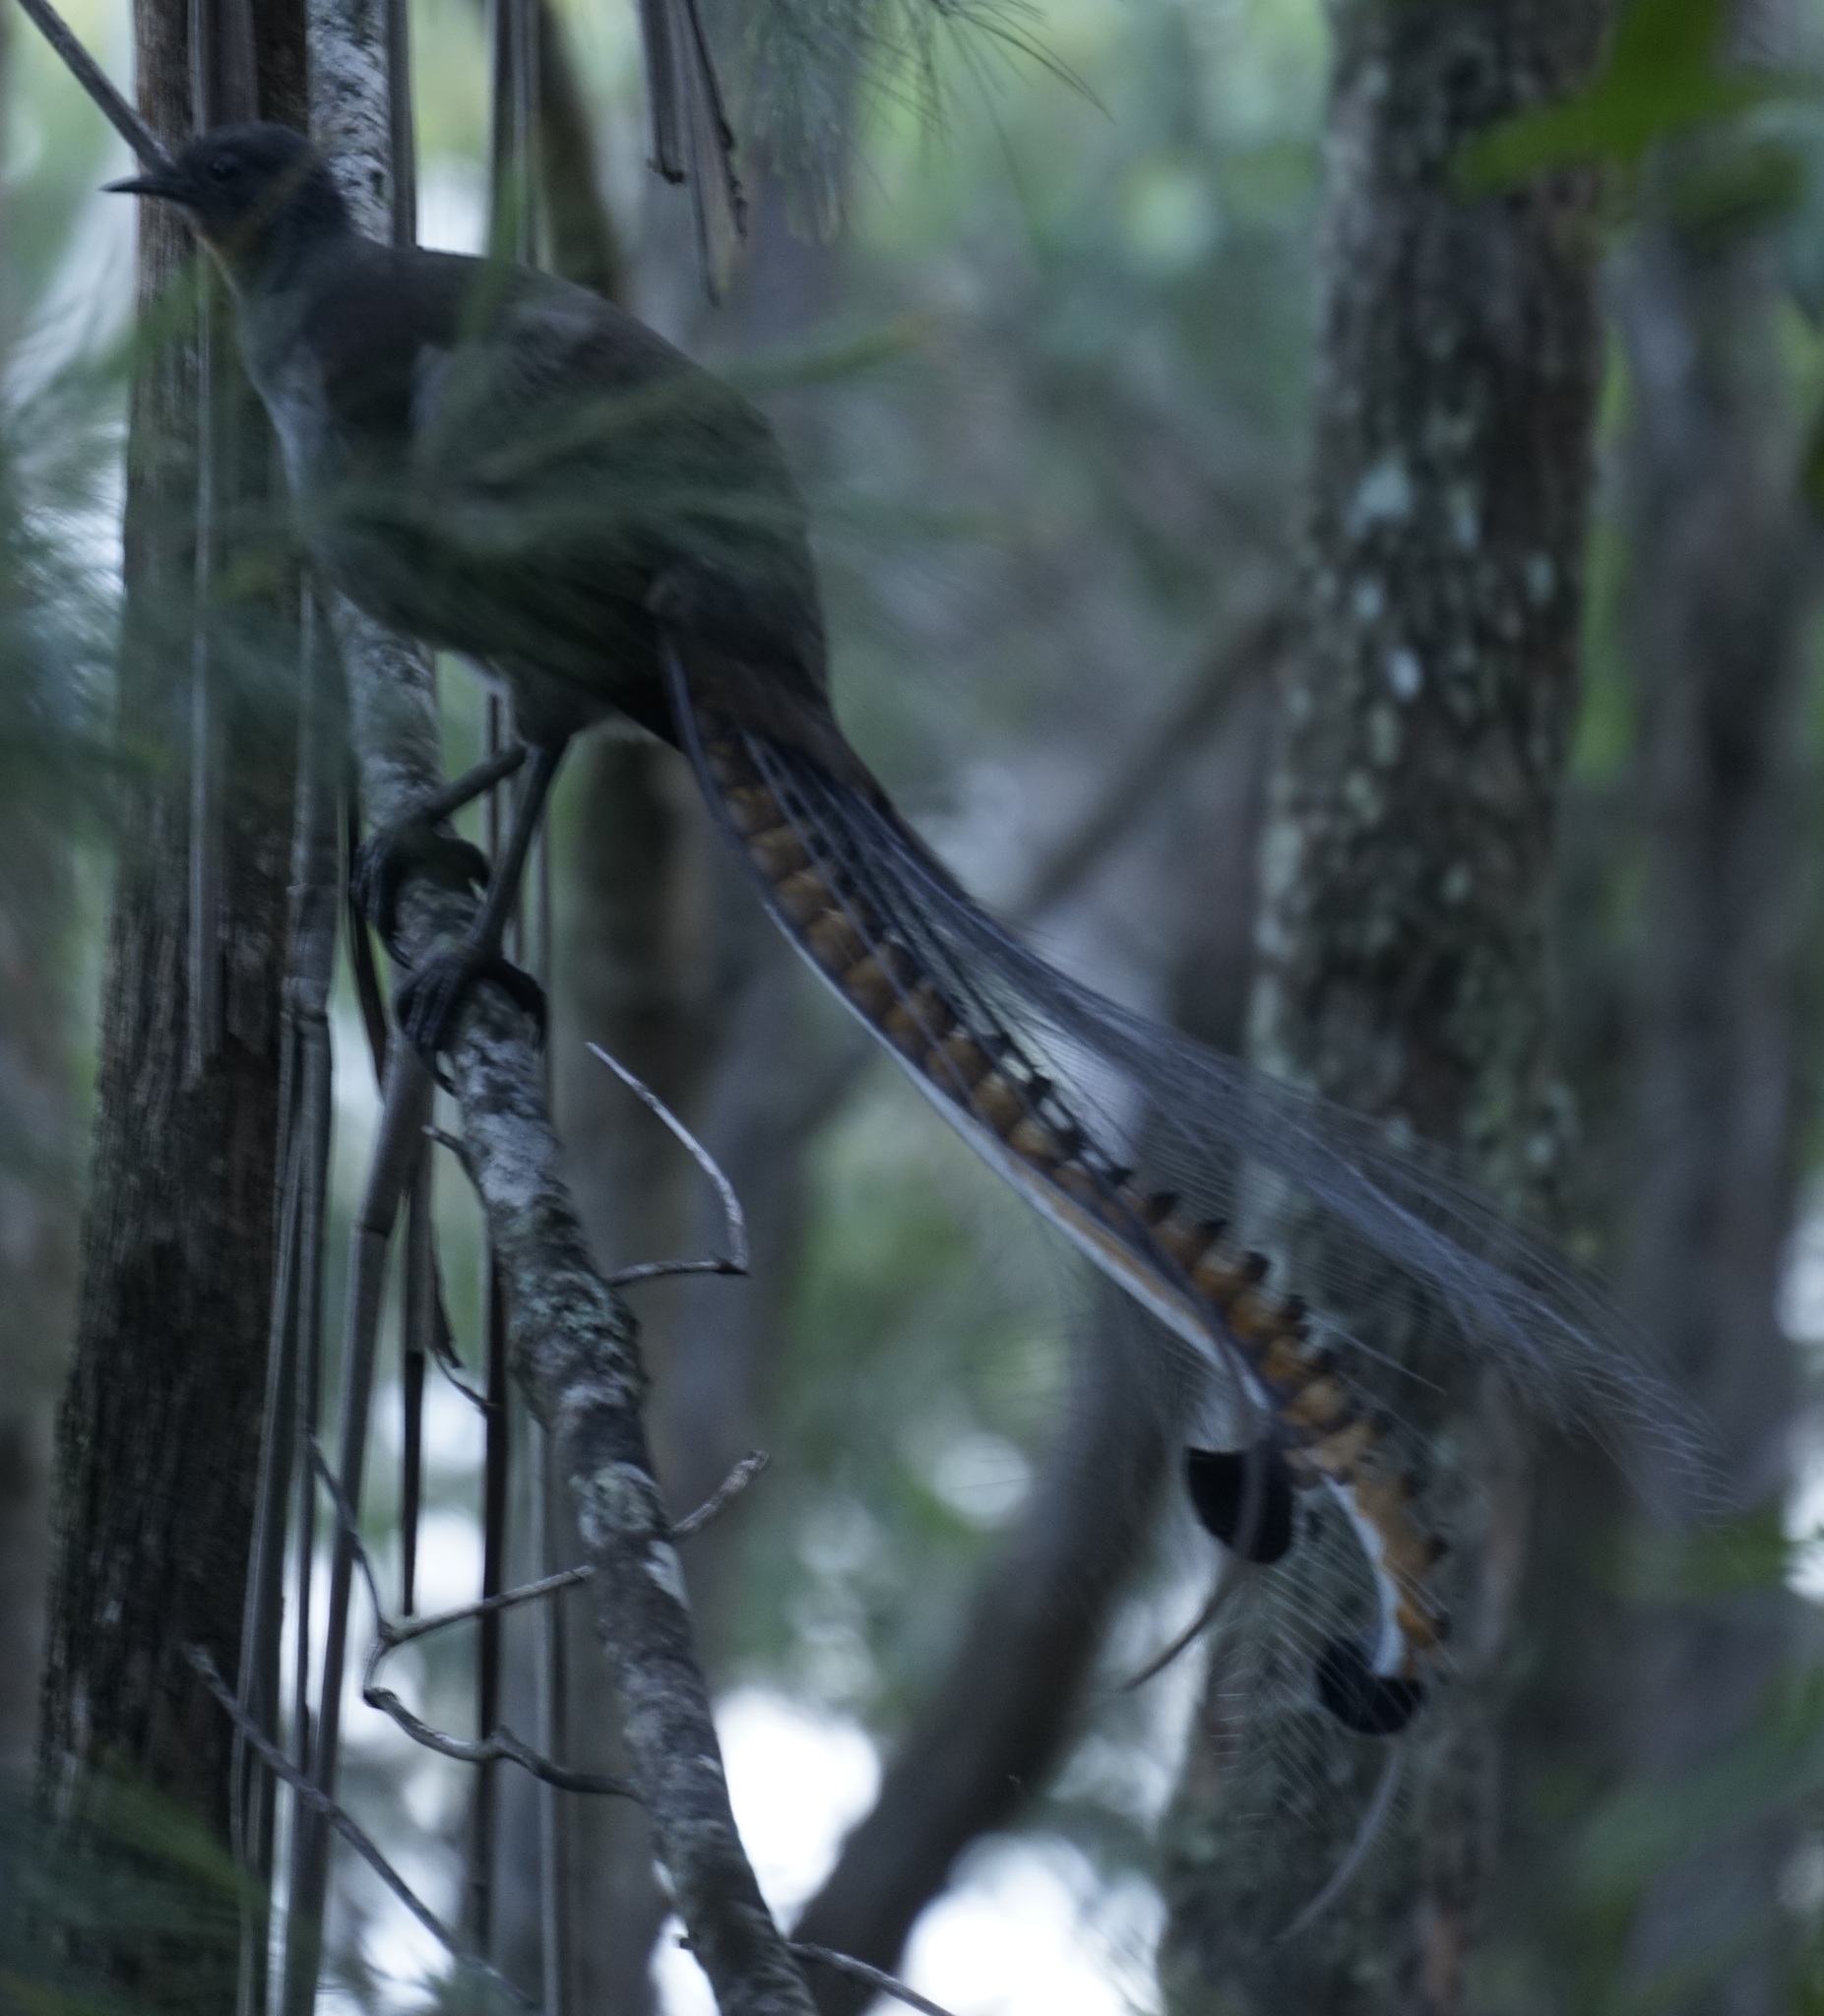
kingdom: Animalia
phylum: Chordata
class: Aves
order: Passeriformes
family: Menuridae
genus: Menura
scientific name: Menura novaehollandiae
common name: Superb lyrebird
